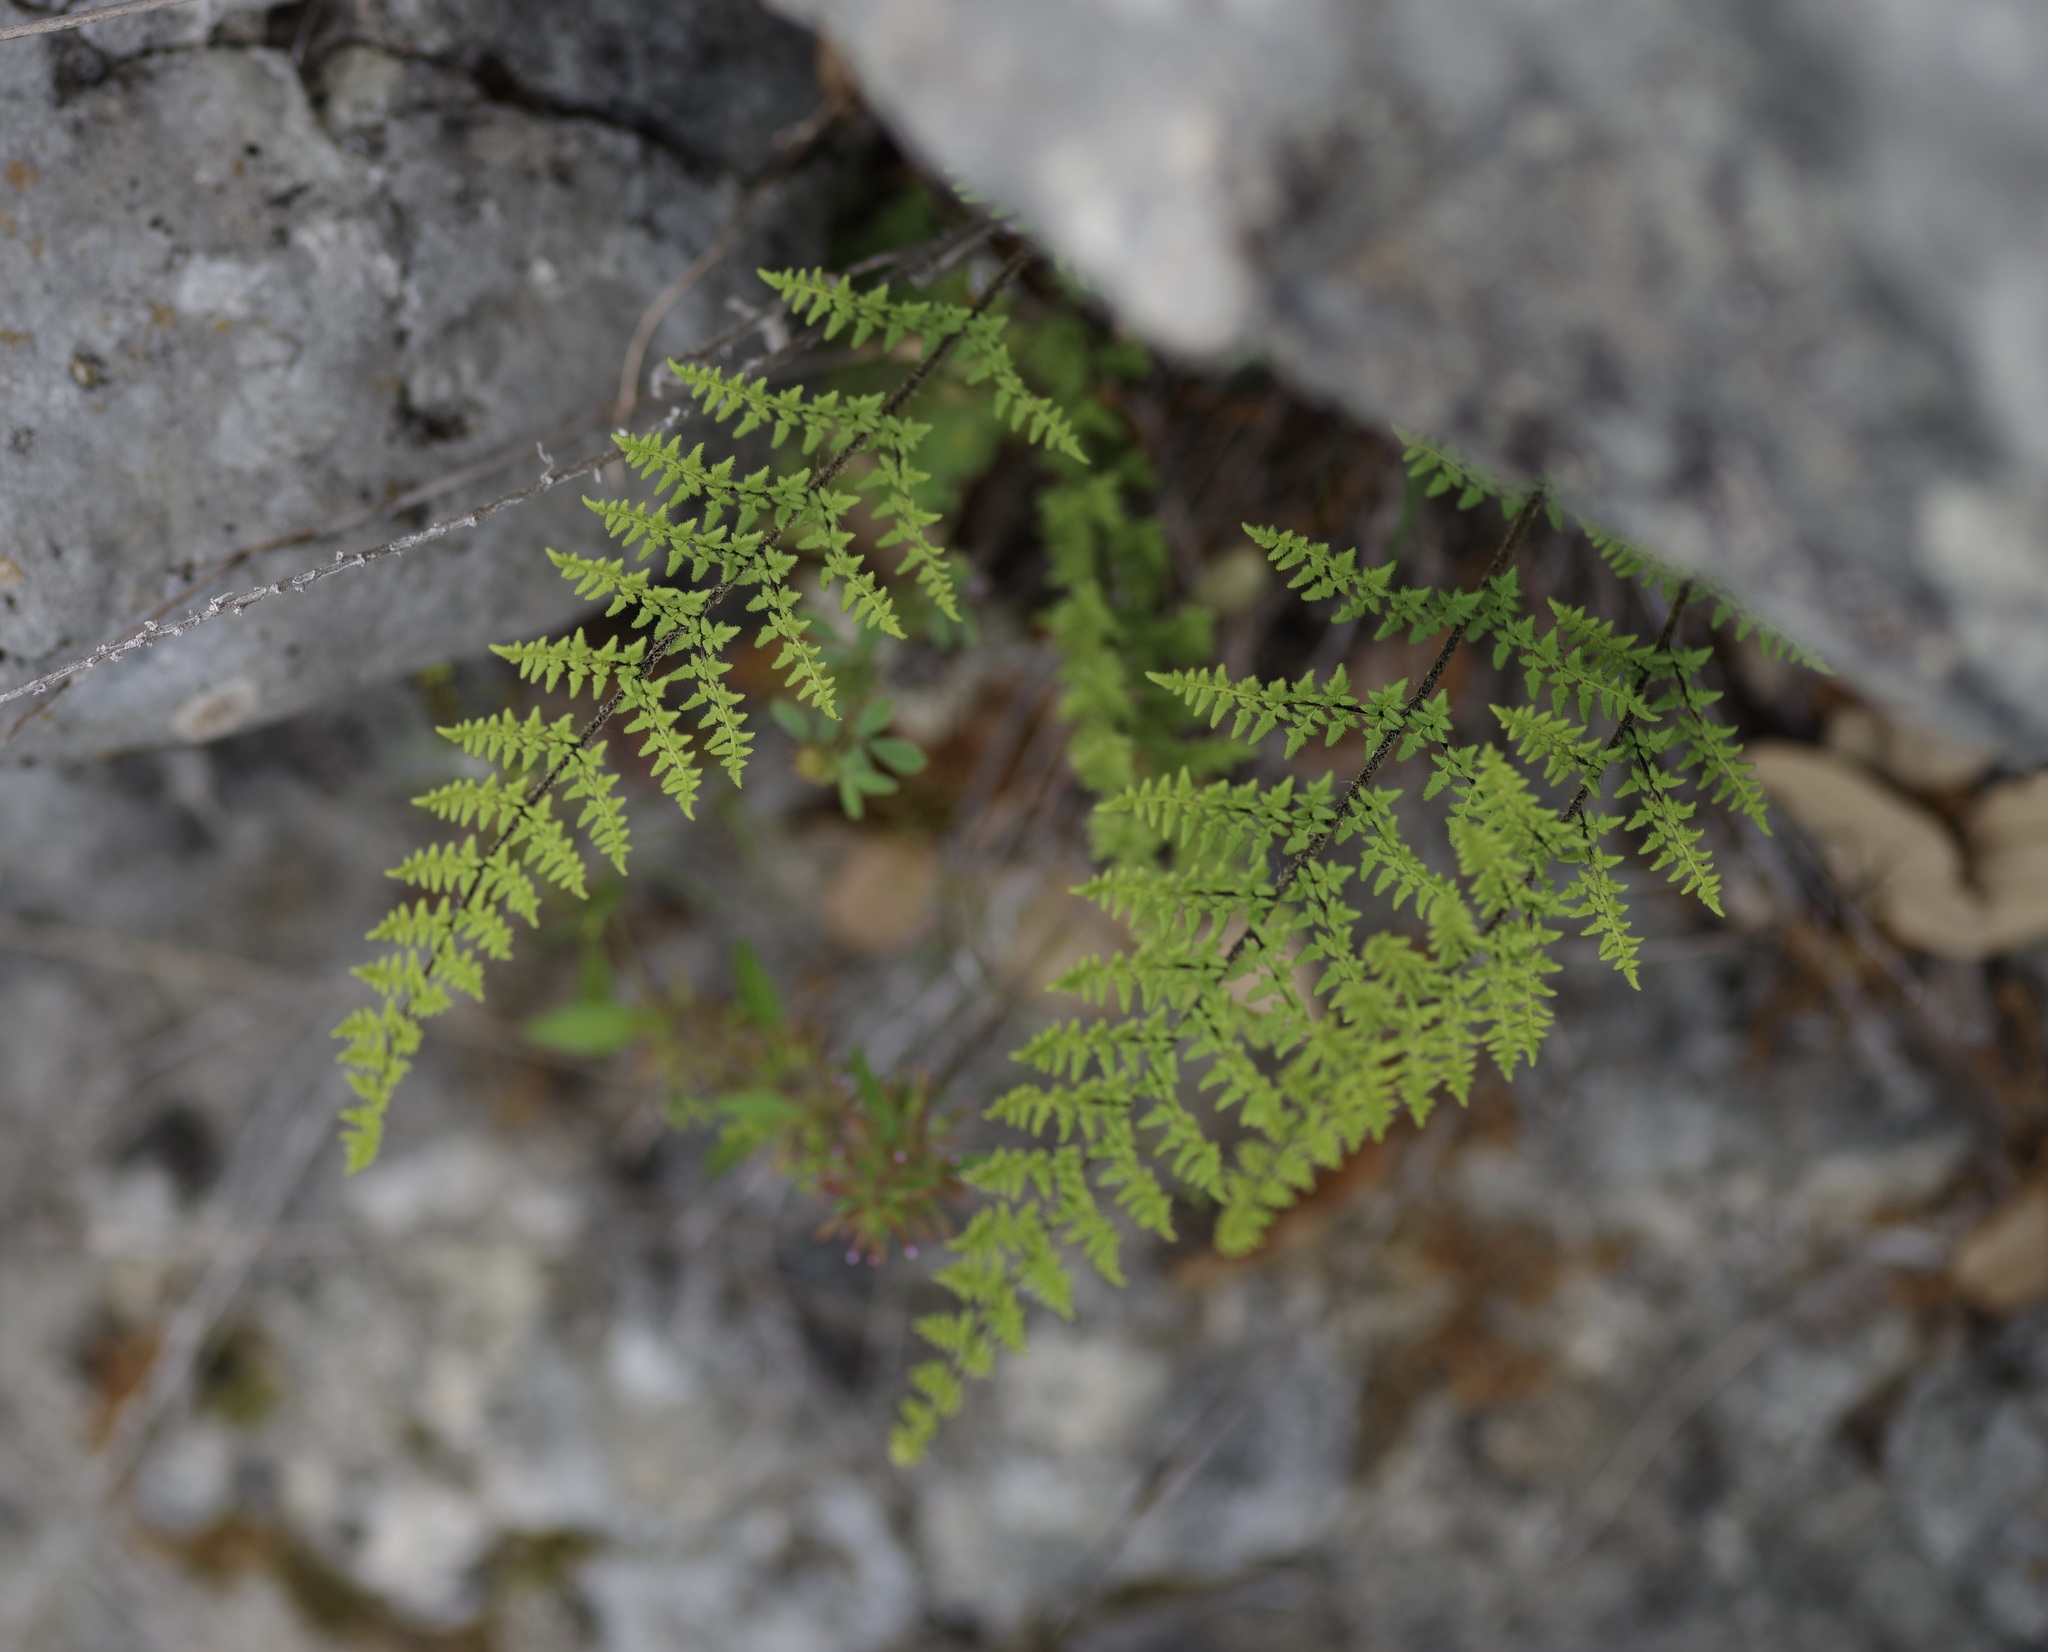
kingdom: Plantae
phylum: Tracheophyta
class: Polypodiopsida
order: Polypodiales
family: Pteridaceae
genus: Myriopteris
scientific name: Myriopteris scabra
